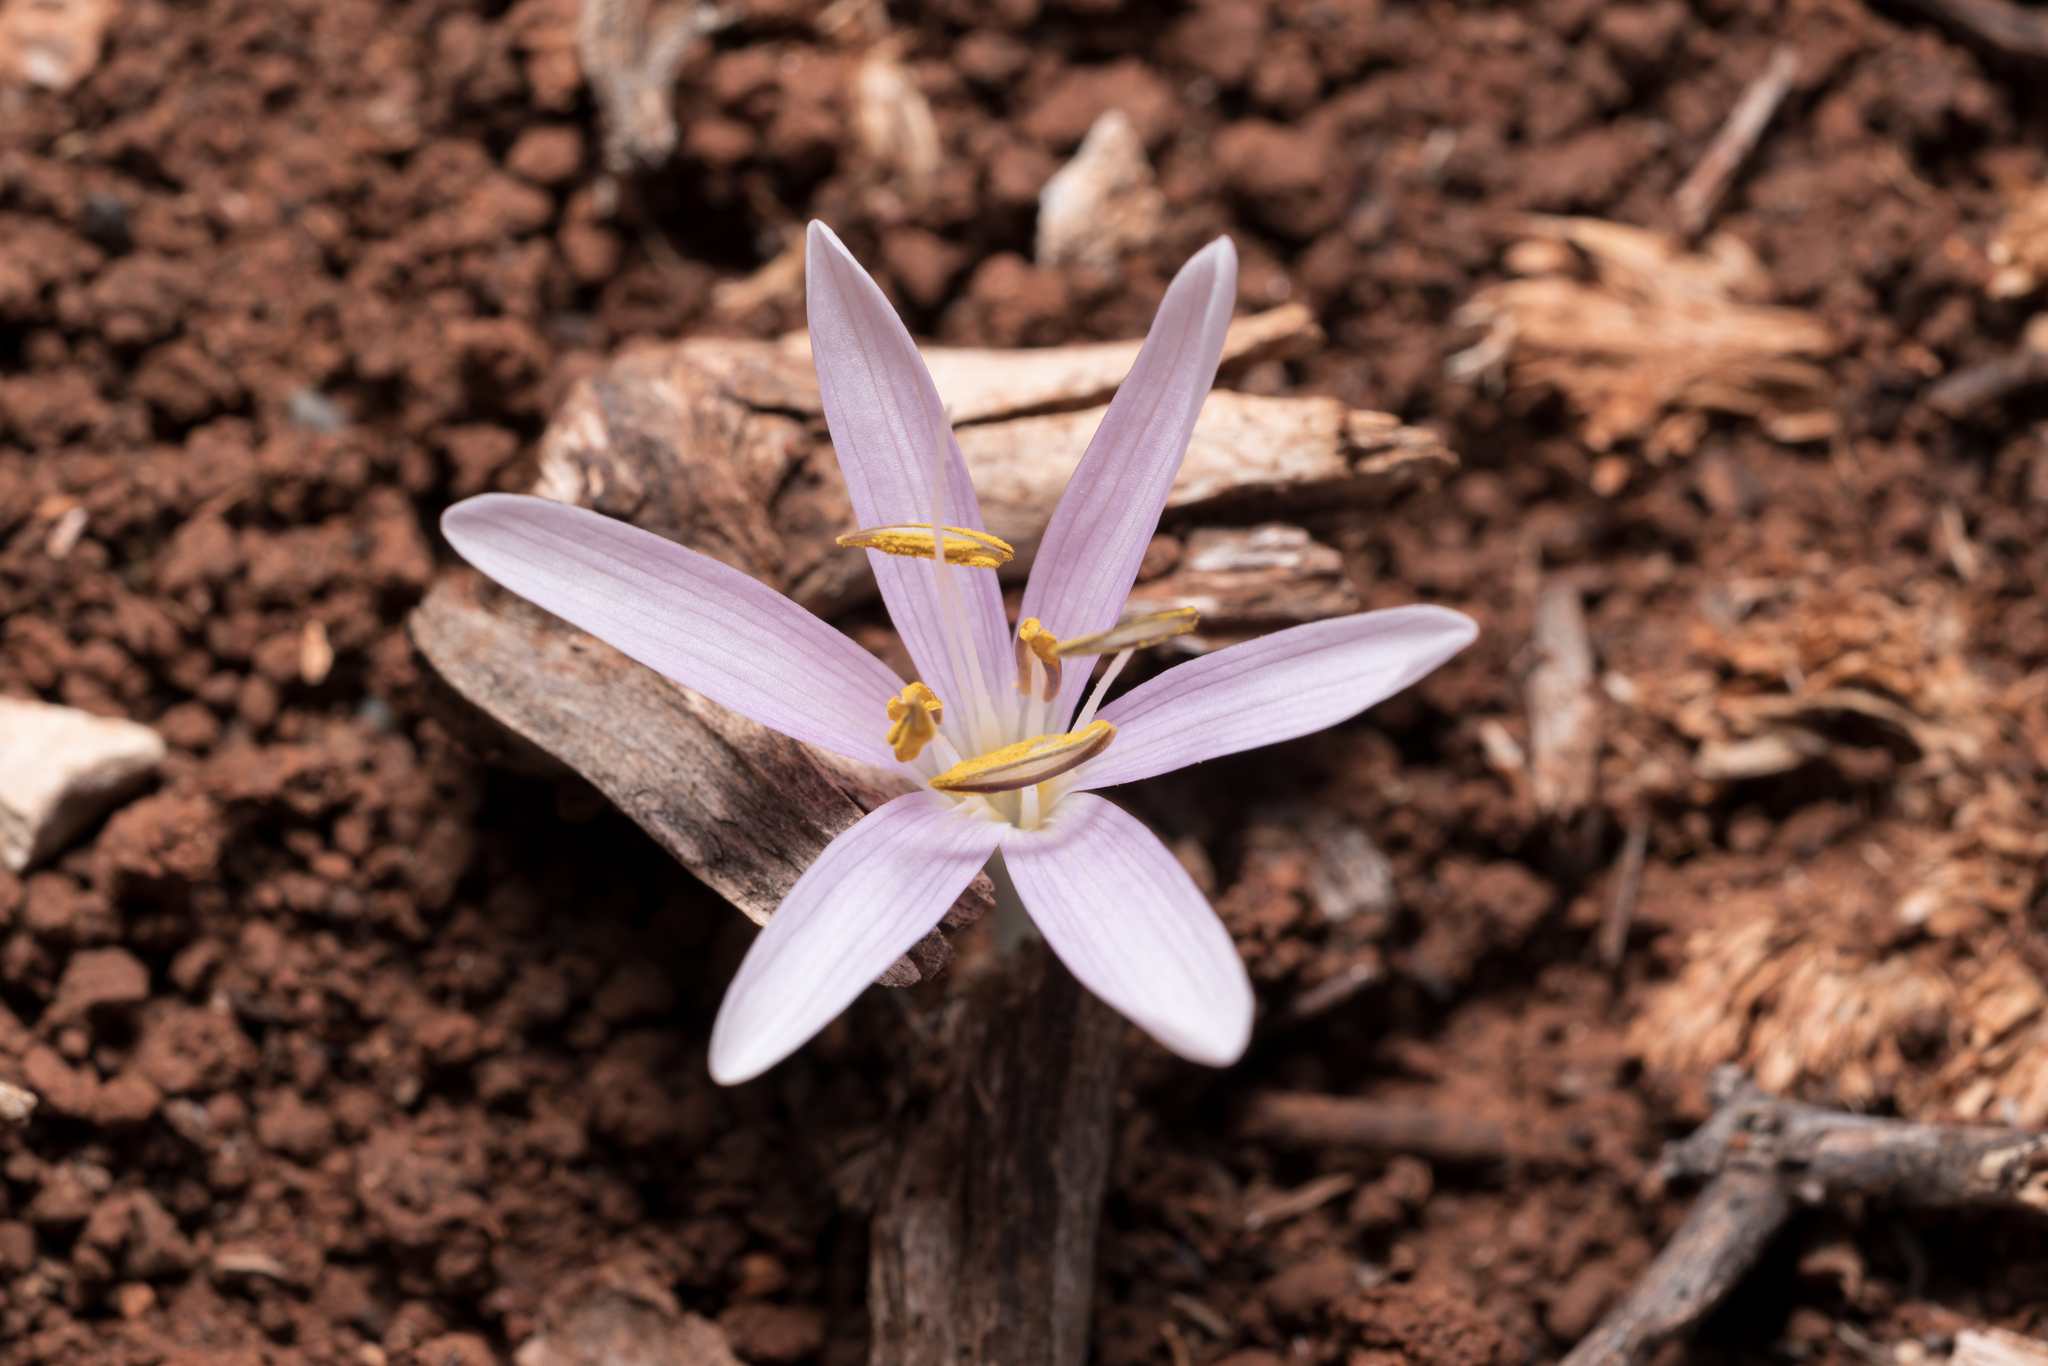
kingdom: Plantae
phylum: Tracheophyta
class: Liliopsida
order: Liliales
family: Colchicaceae
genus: Colchicum
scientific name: Colchicum pusillum
